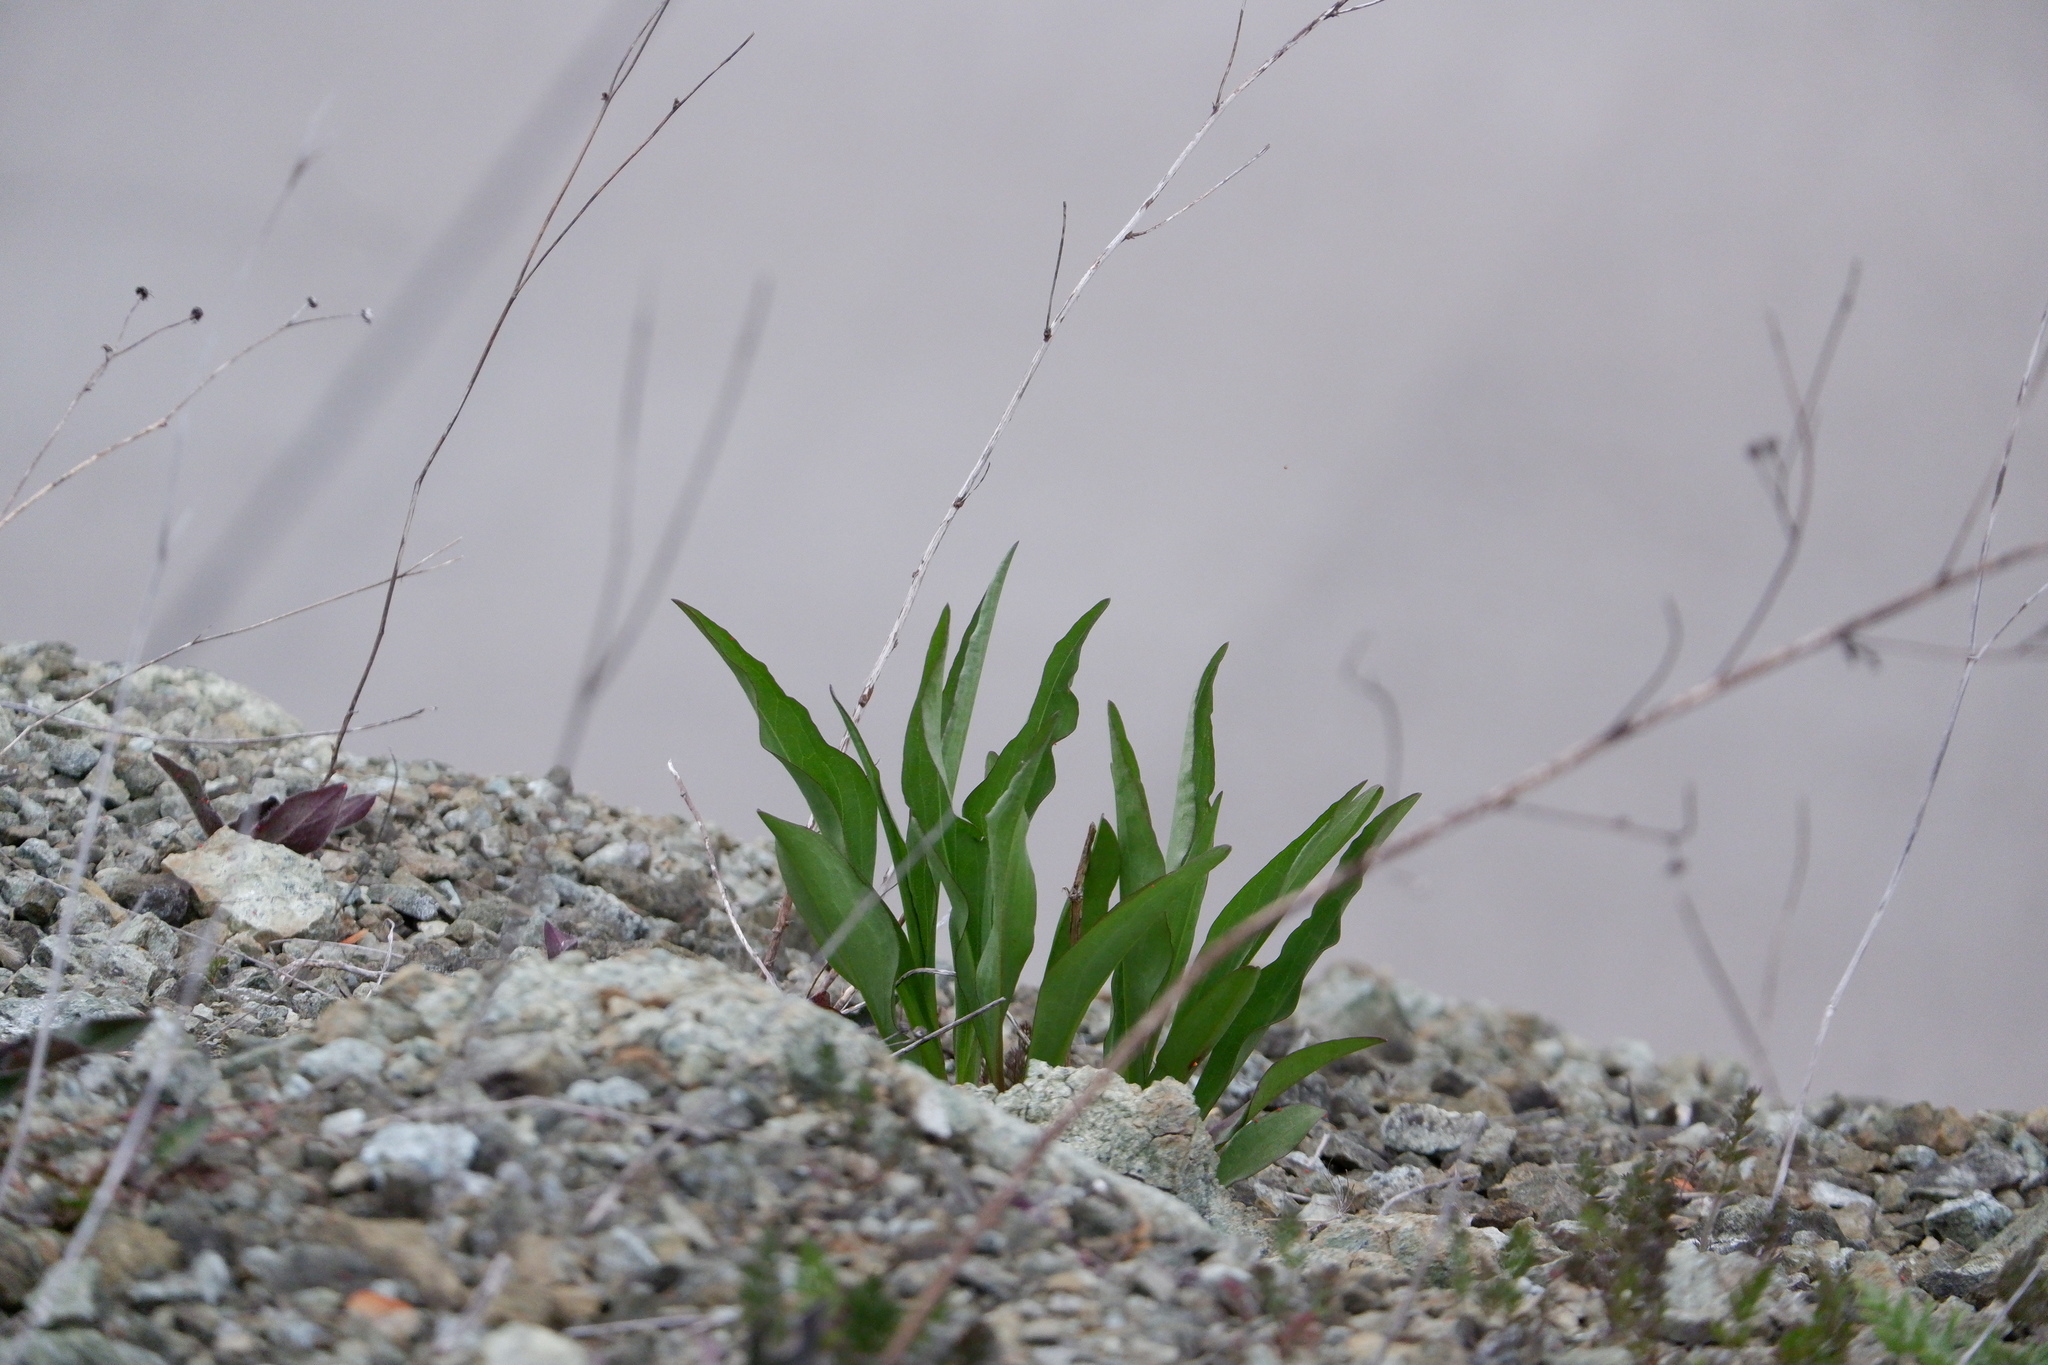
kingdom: Plantae
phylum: Tracheophyta
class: Magnoliopsida
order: Asterales
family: Asteraceae
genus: Solidago
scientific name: Solidago sempervirens
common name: Salt-marsh goldenrod
